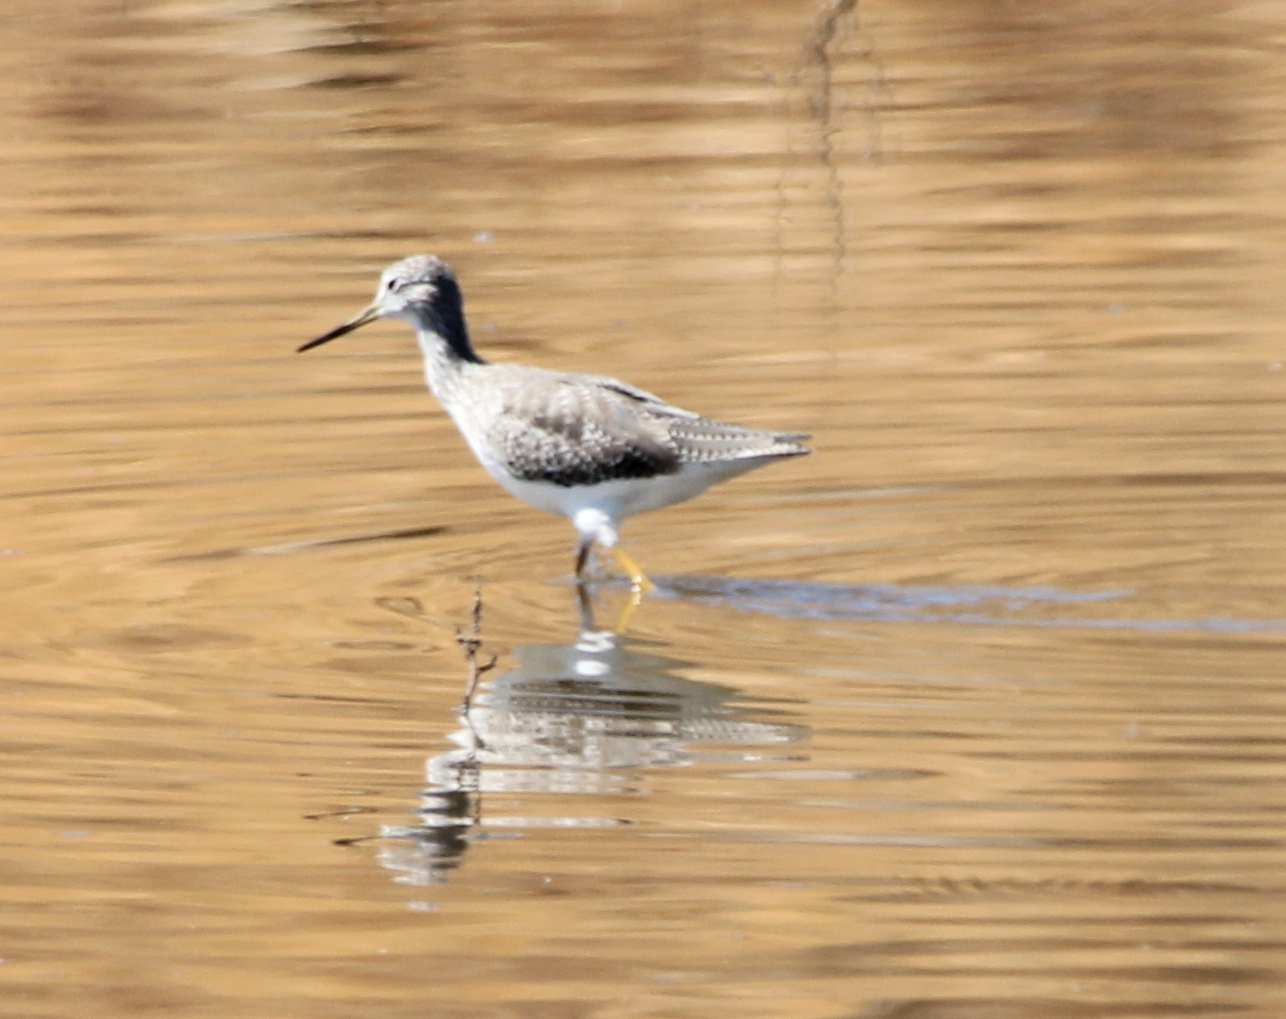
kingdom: Animalia
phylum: Chordata
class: Aves
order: Charadriiformes
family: Scolopacidae
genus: Tringa
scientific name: Tringa melanoleuca
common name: Greater yellowlegs
